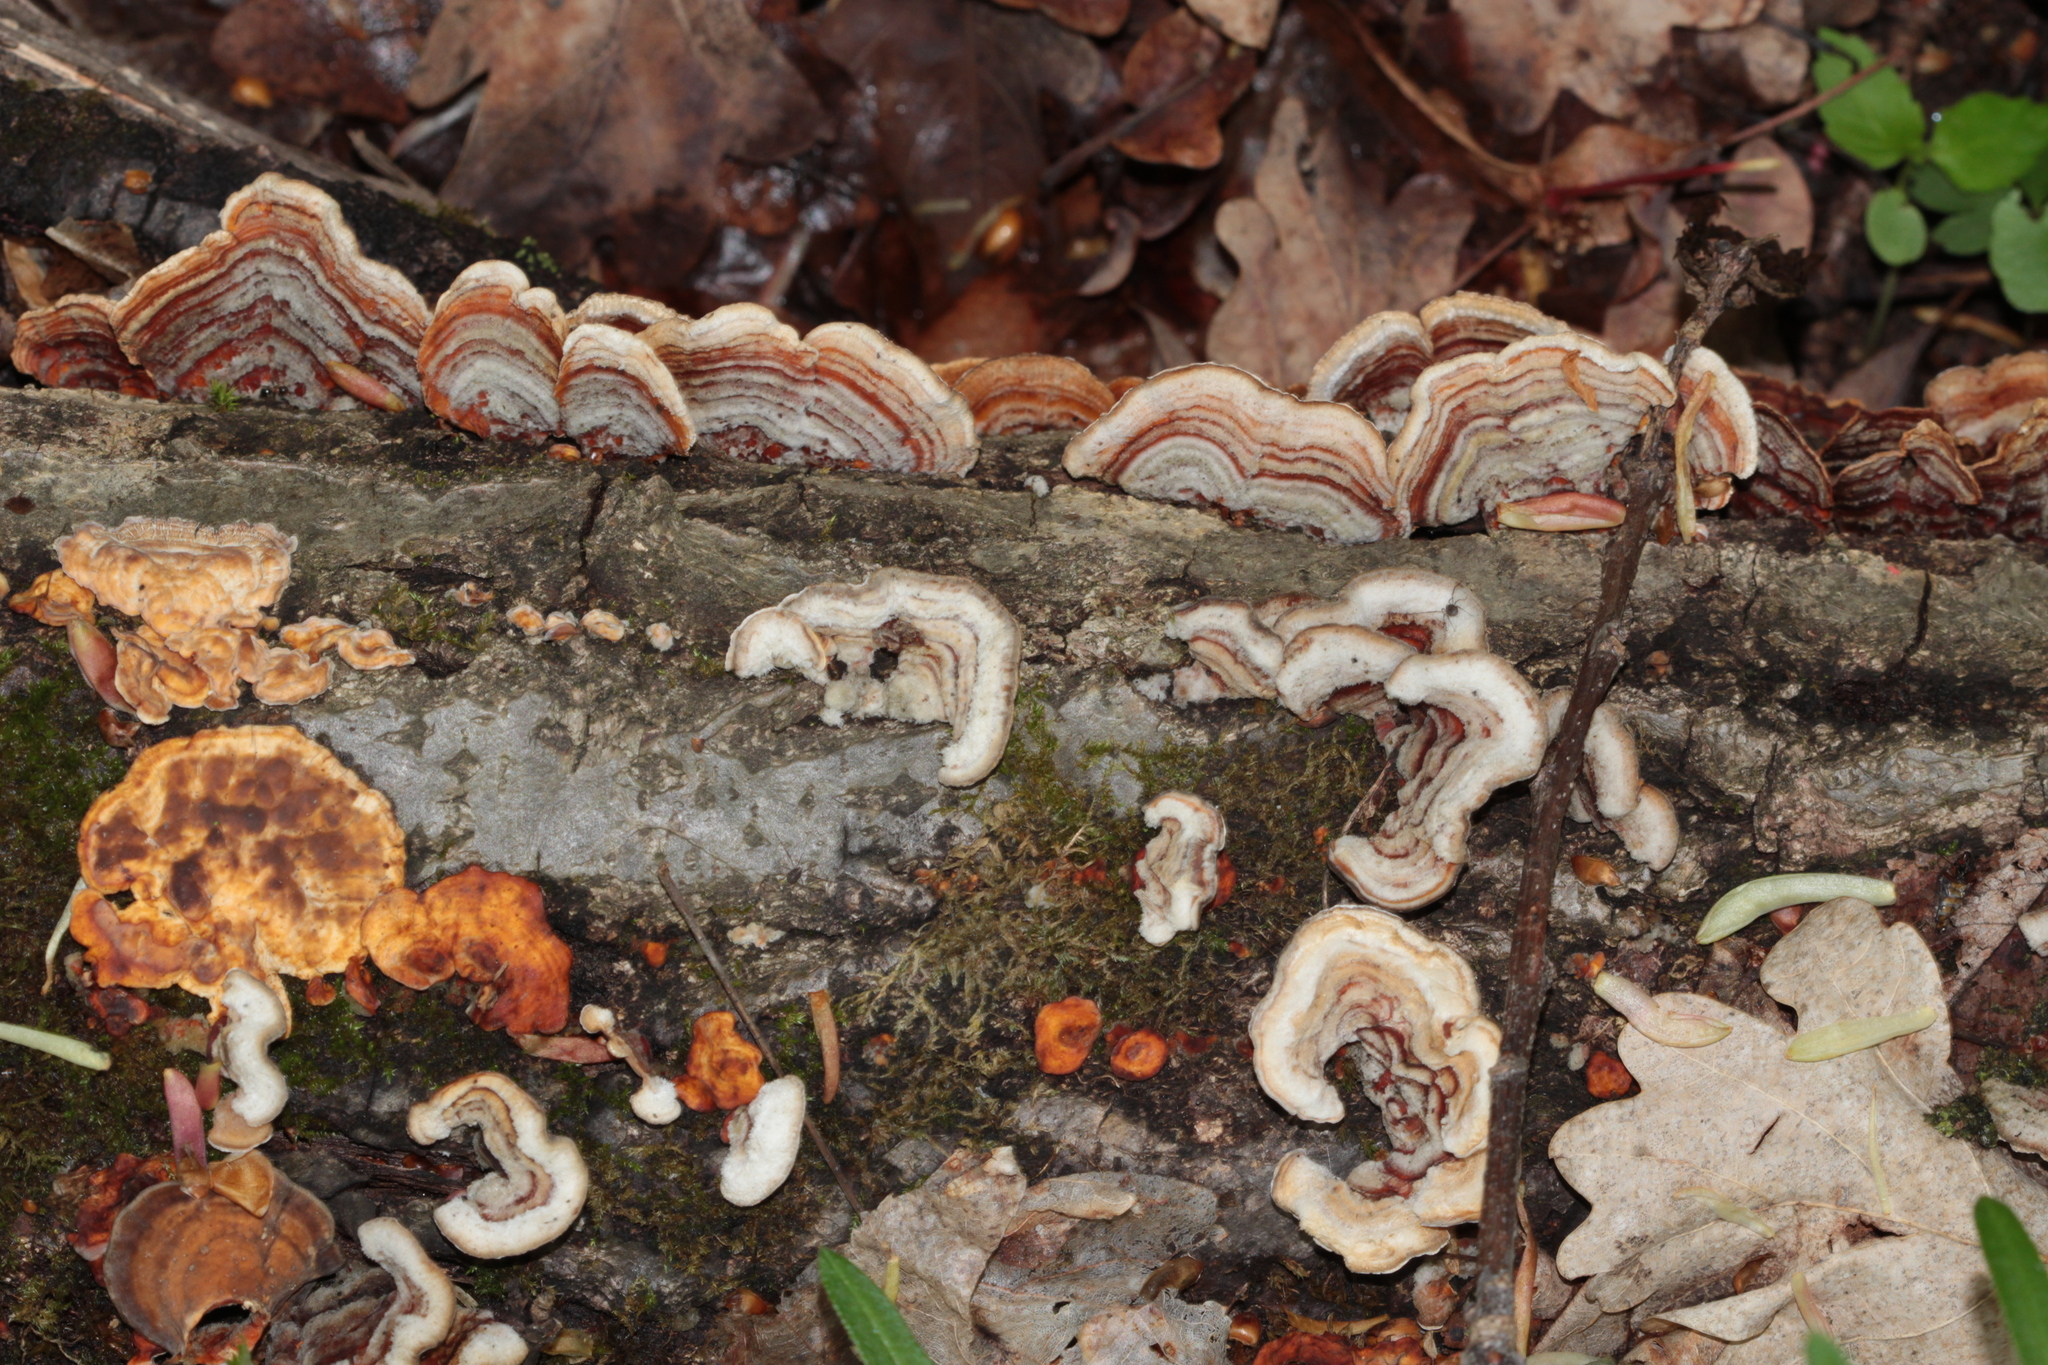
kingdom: Fungi
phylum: Basidiomycota
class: Agaricomycetes
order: Russulales
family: Stereaceae
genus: Stereum
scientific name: Stereum hirsutum
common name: Hairy curtain crust
